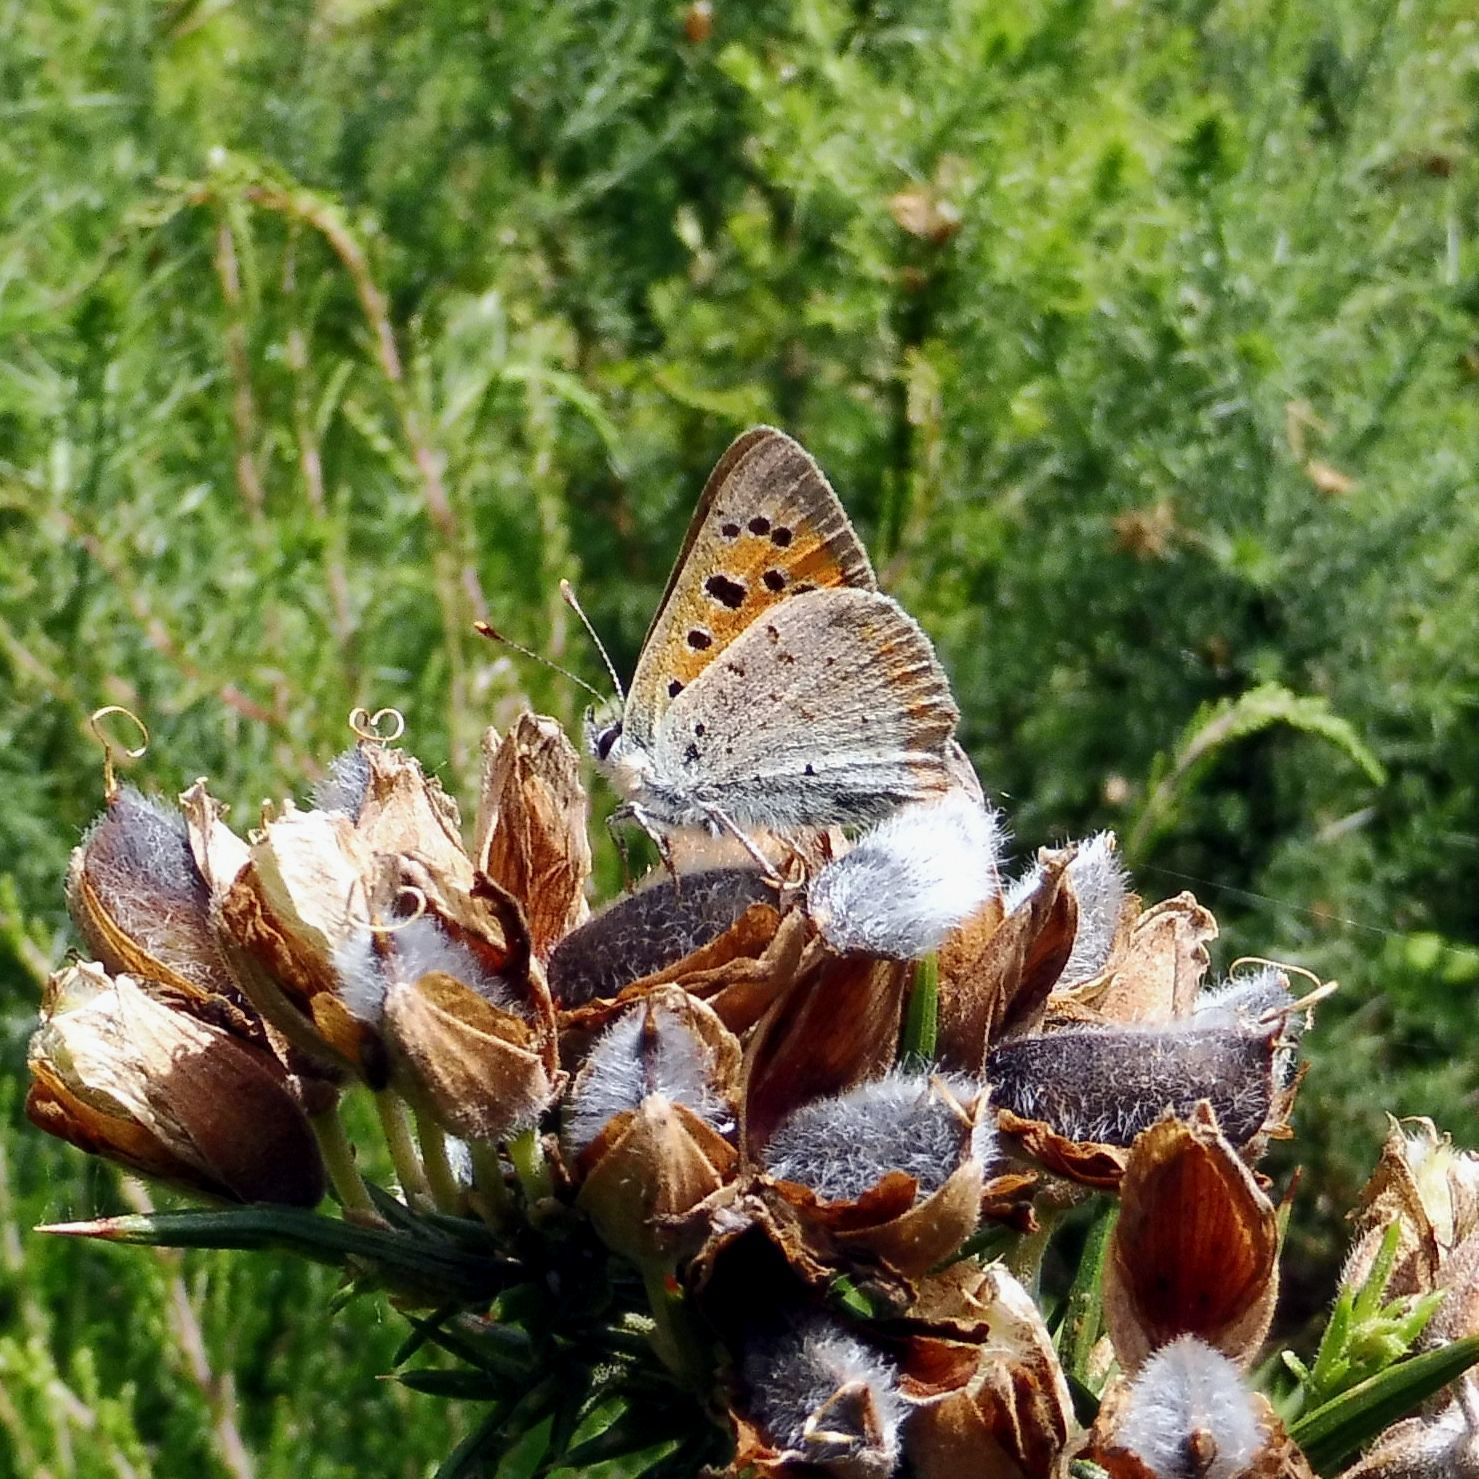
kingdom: Animalia
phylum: Arthropoda
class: Insecta
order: Lepidoptera
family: Lycaenidae
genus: Lycaena
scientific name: Lycaena phlaeas
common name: Small copper
